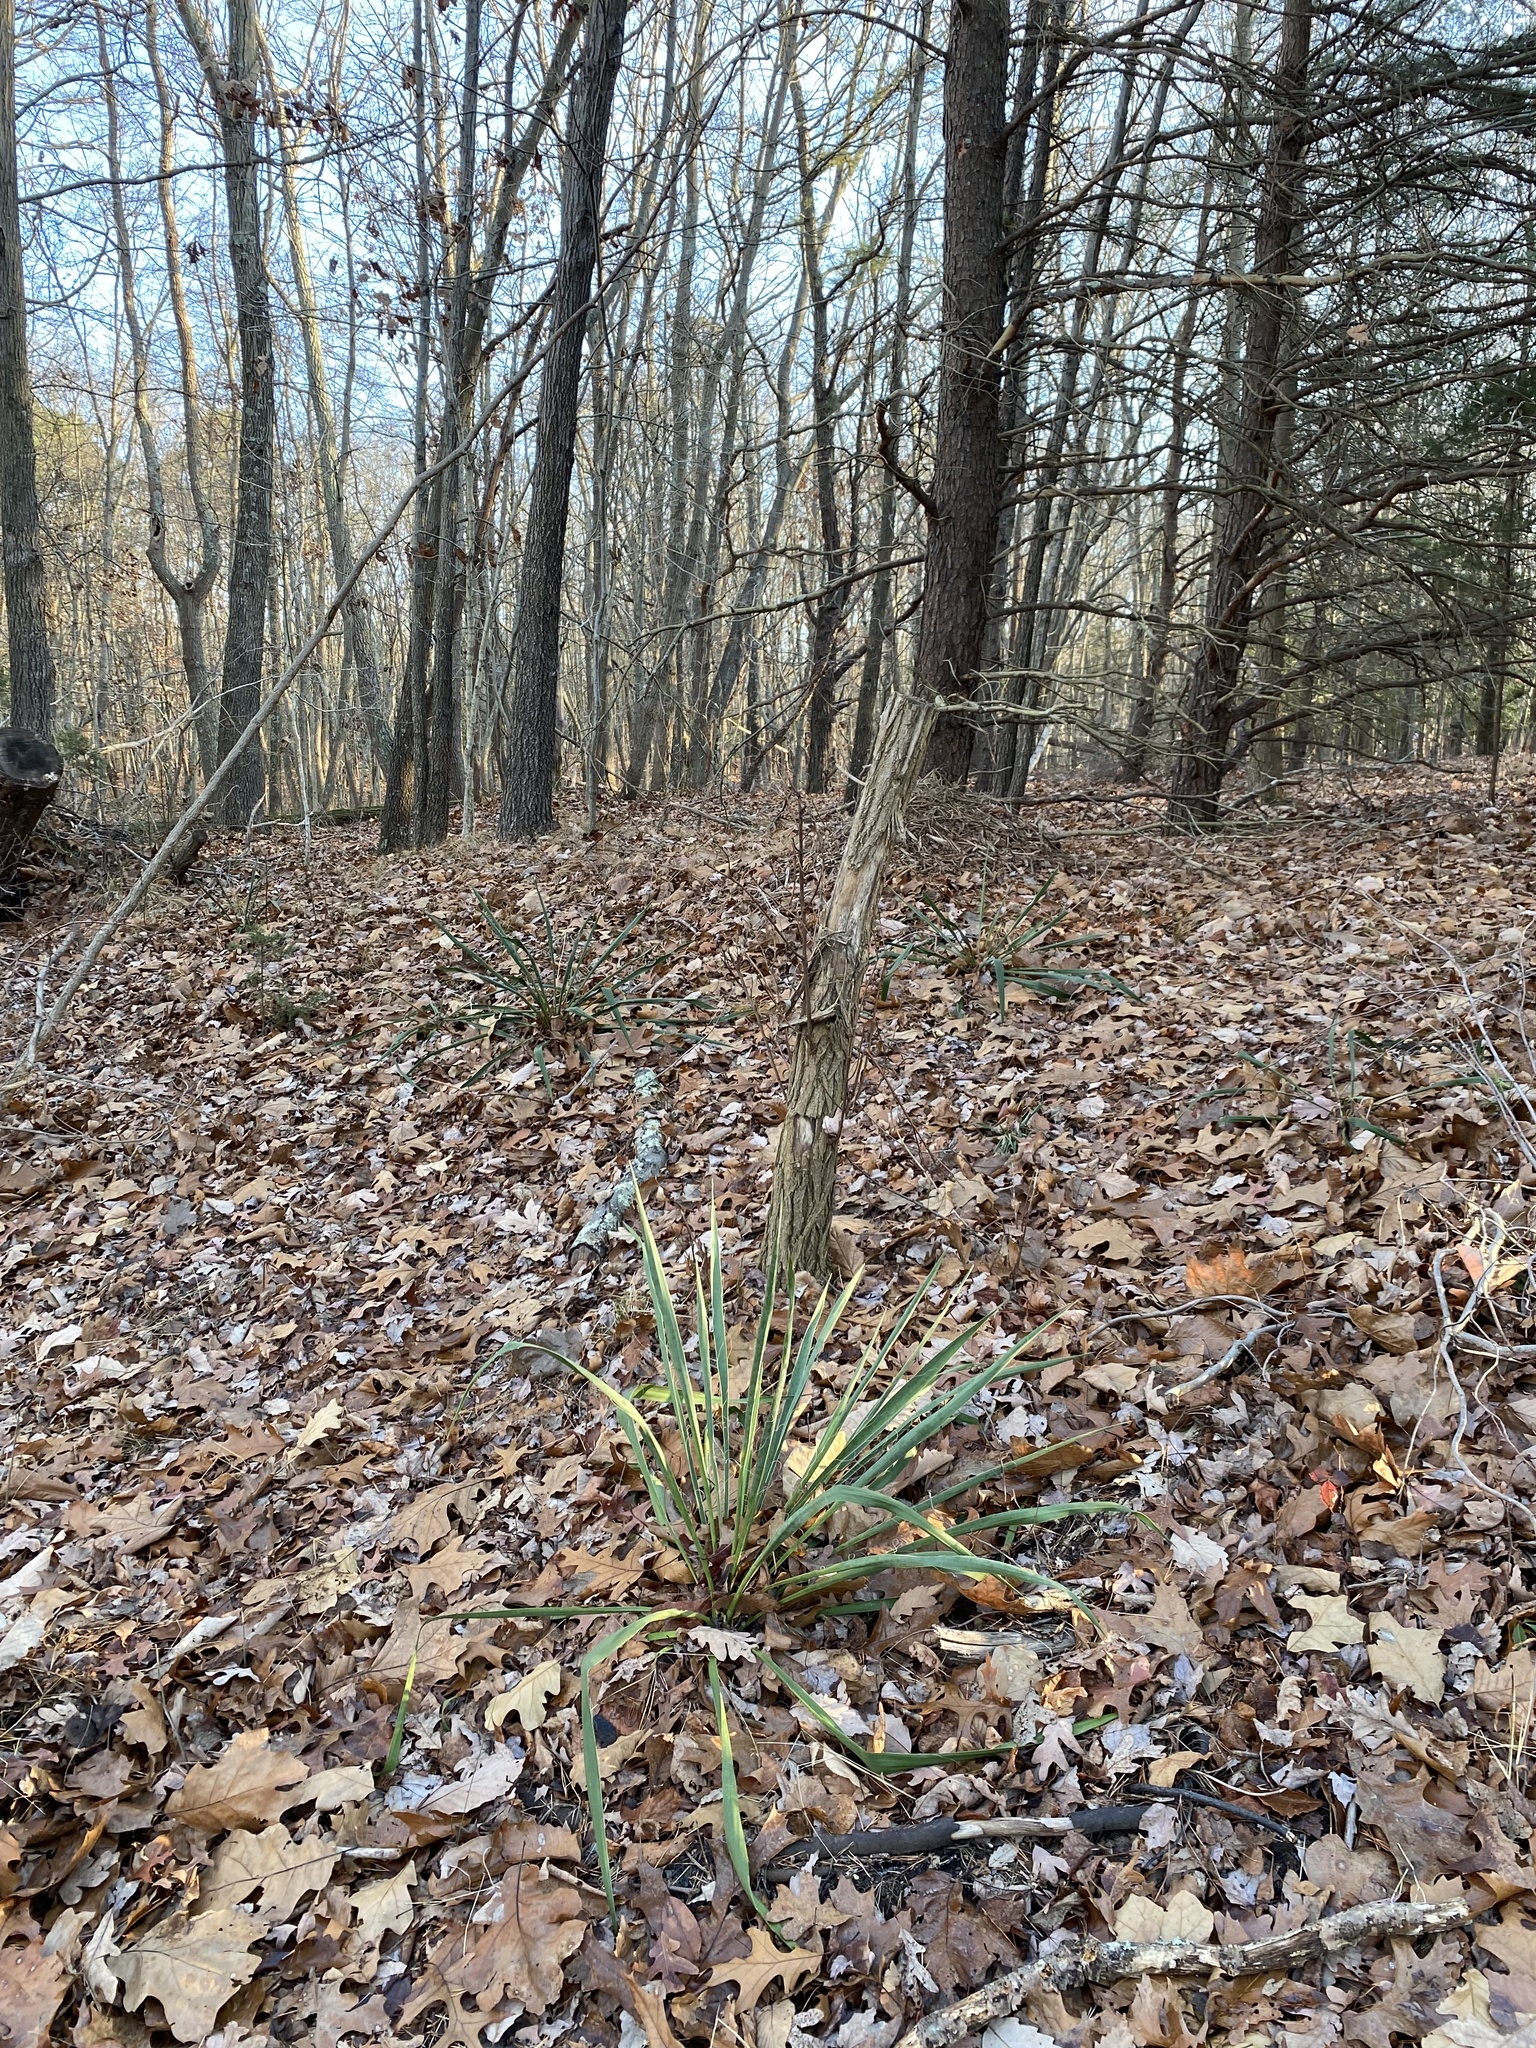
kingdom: Plantae
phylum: Tracheophyta
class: Liliopsida
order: Asparagales
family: Asparagaceae
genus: Yucca
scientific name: Yucca filamentosa
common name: Adam's-needle
